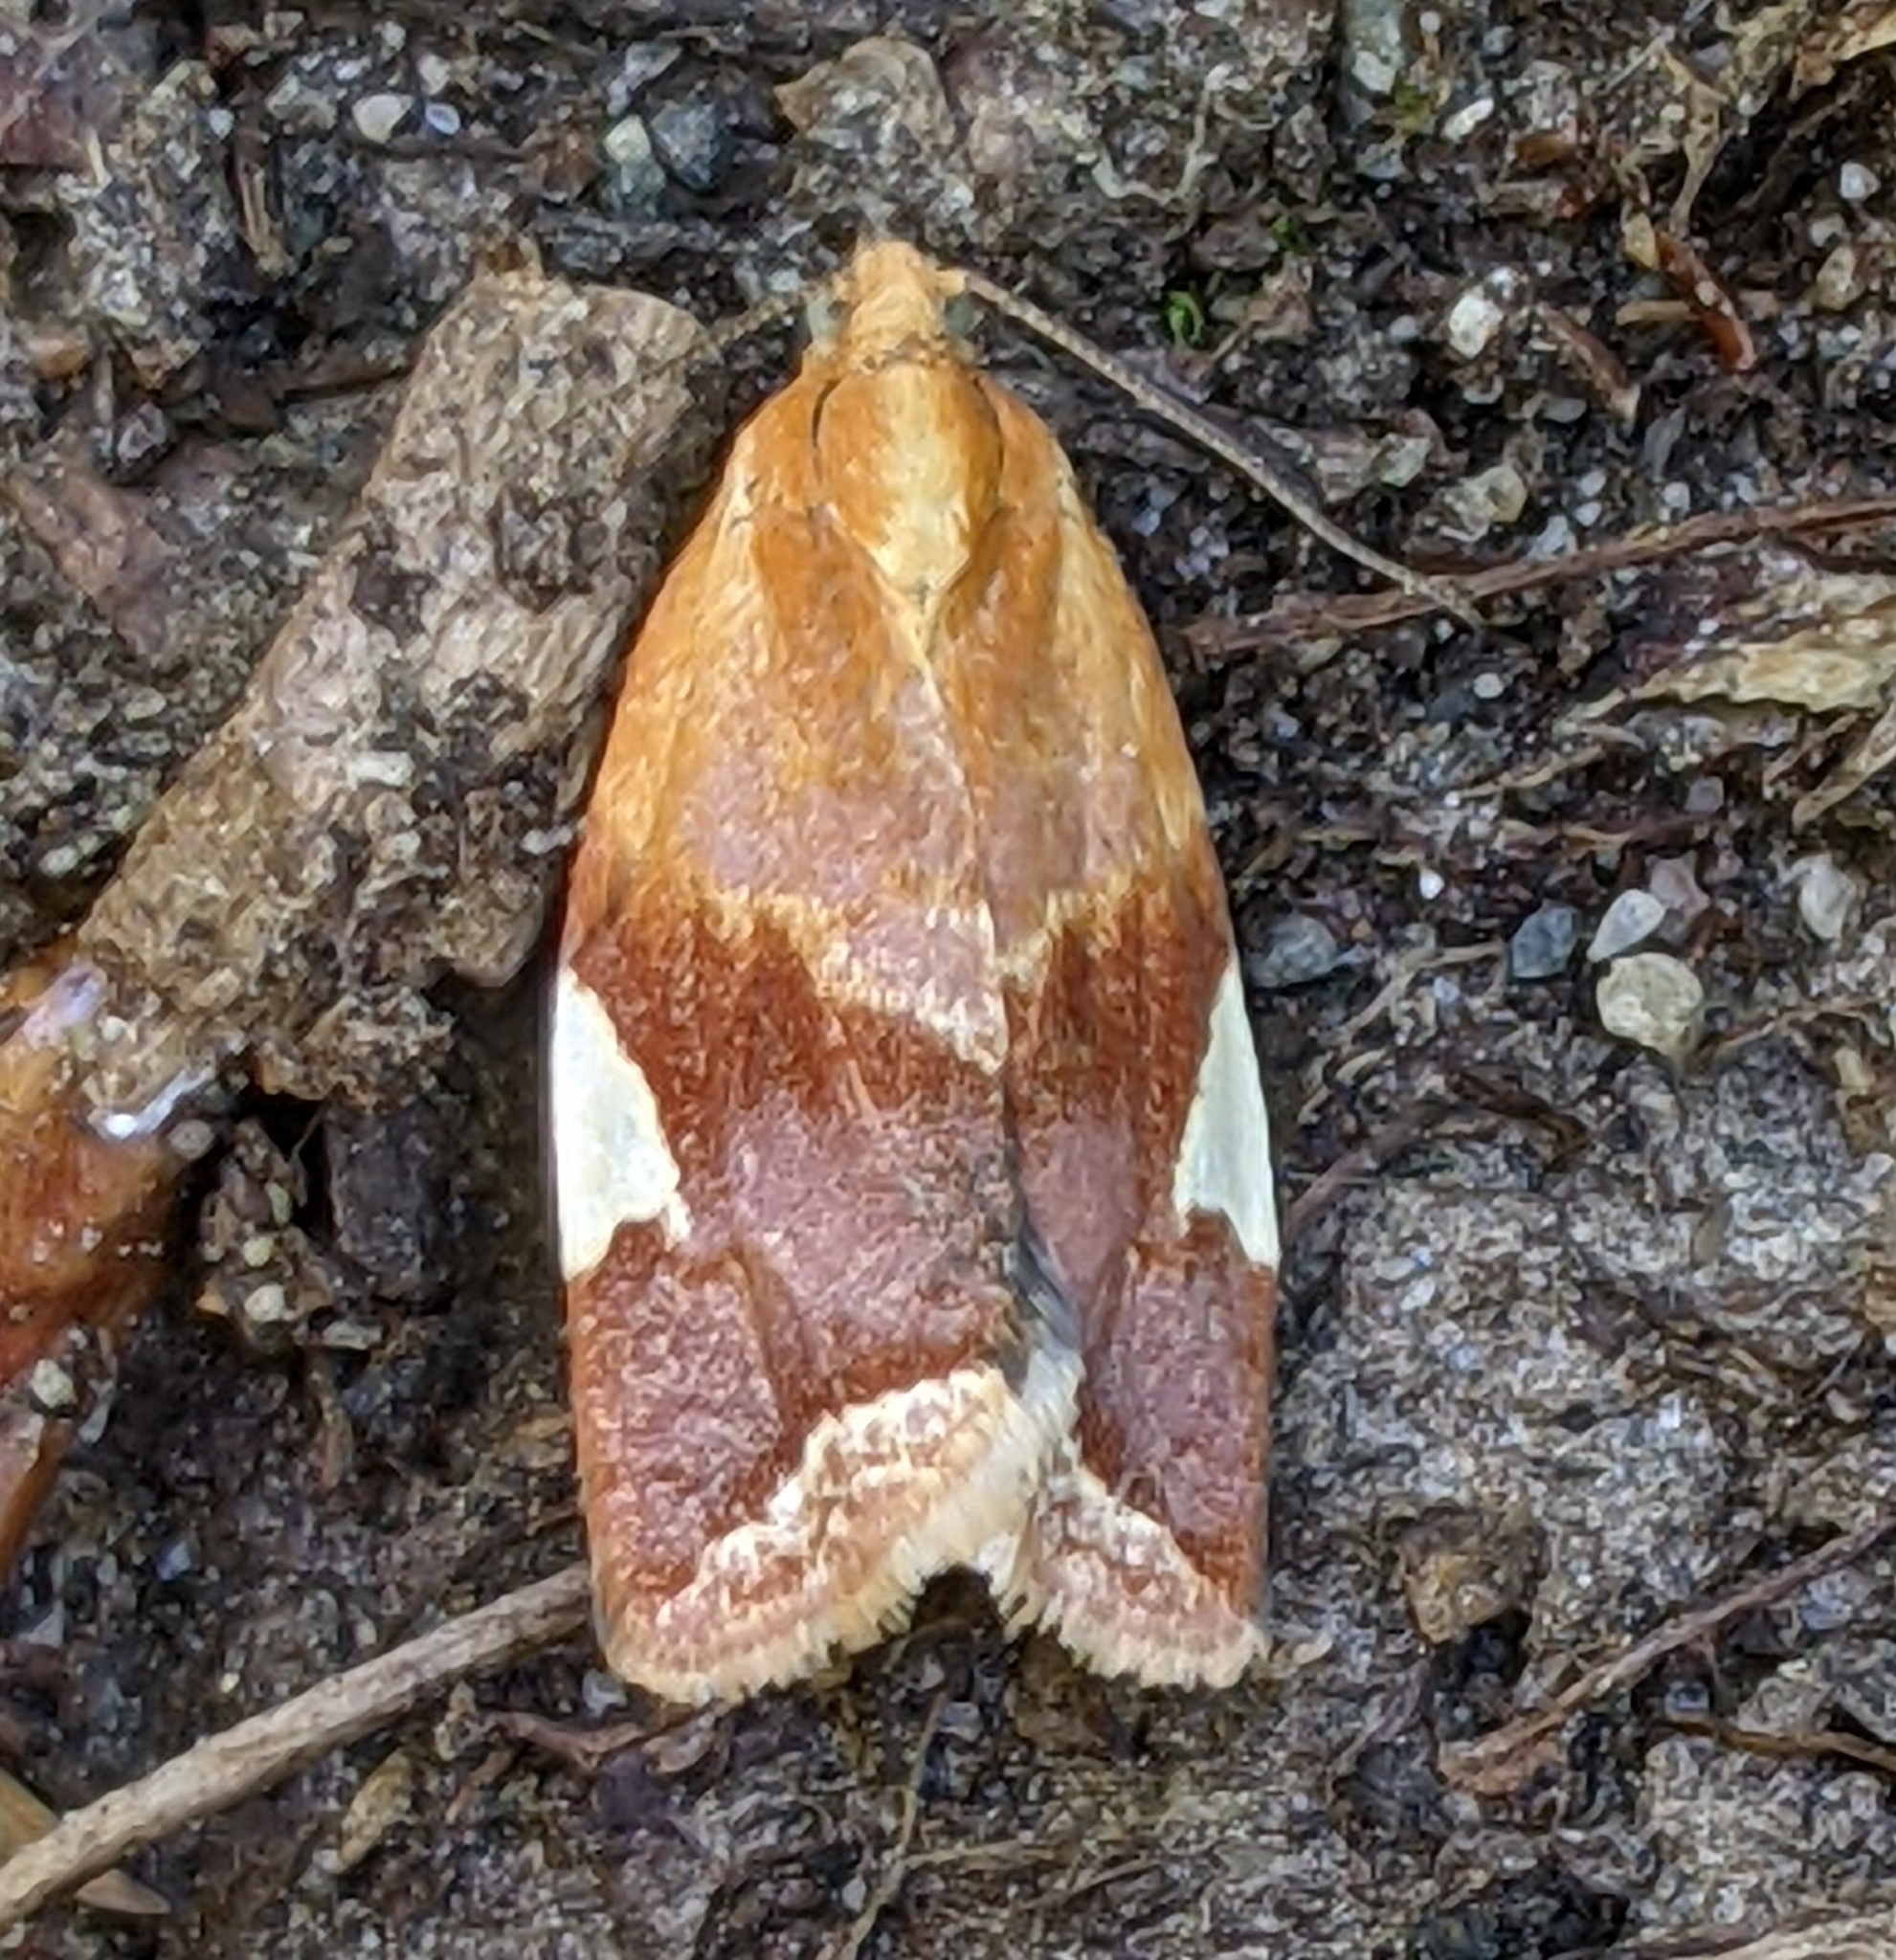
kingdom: Animalia
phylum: Arthropoda
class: Insecta
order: Lepidoptera
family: Tortricidae
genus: Clepsis
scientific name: Clepsis persicana
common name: White triangle tortrix
